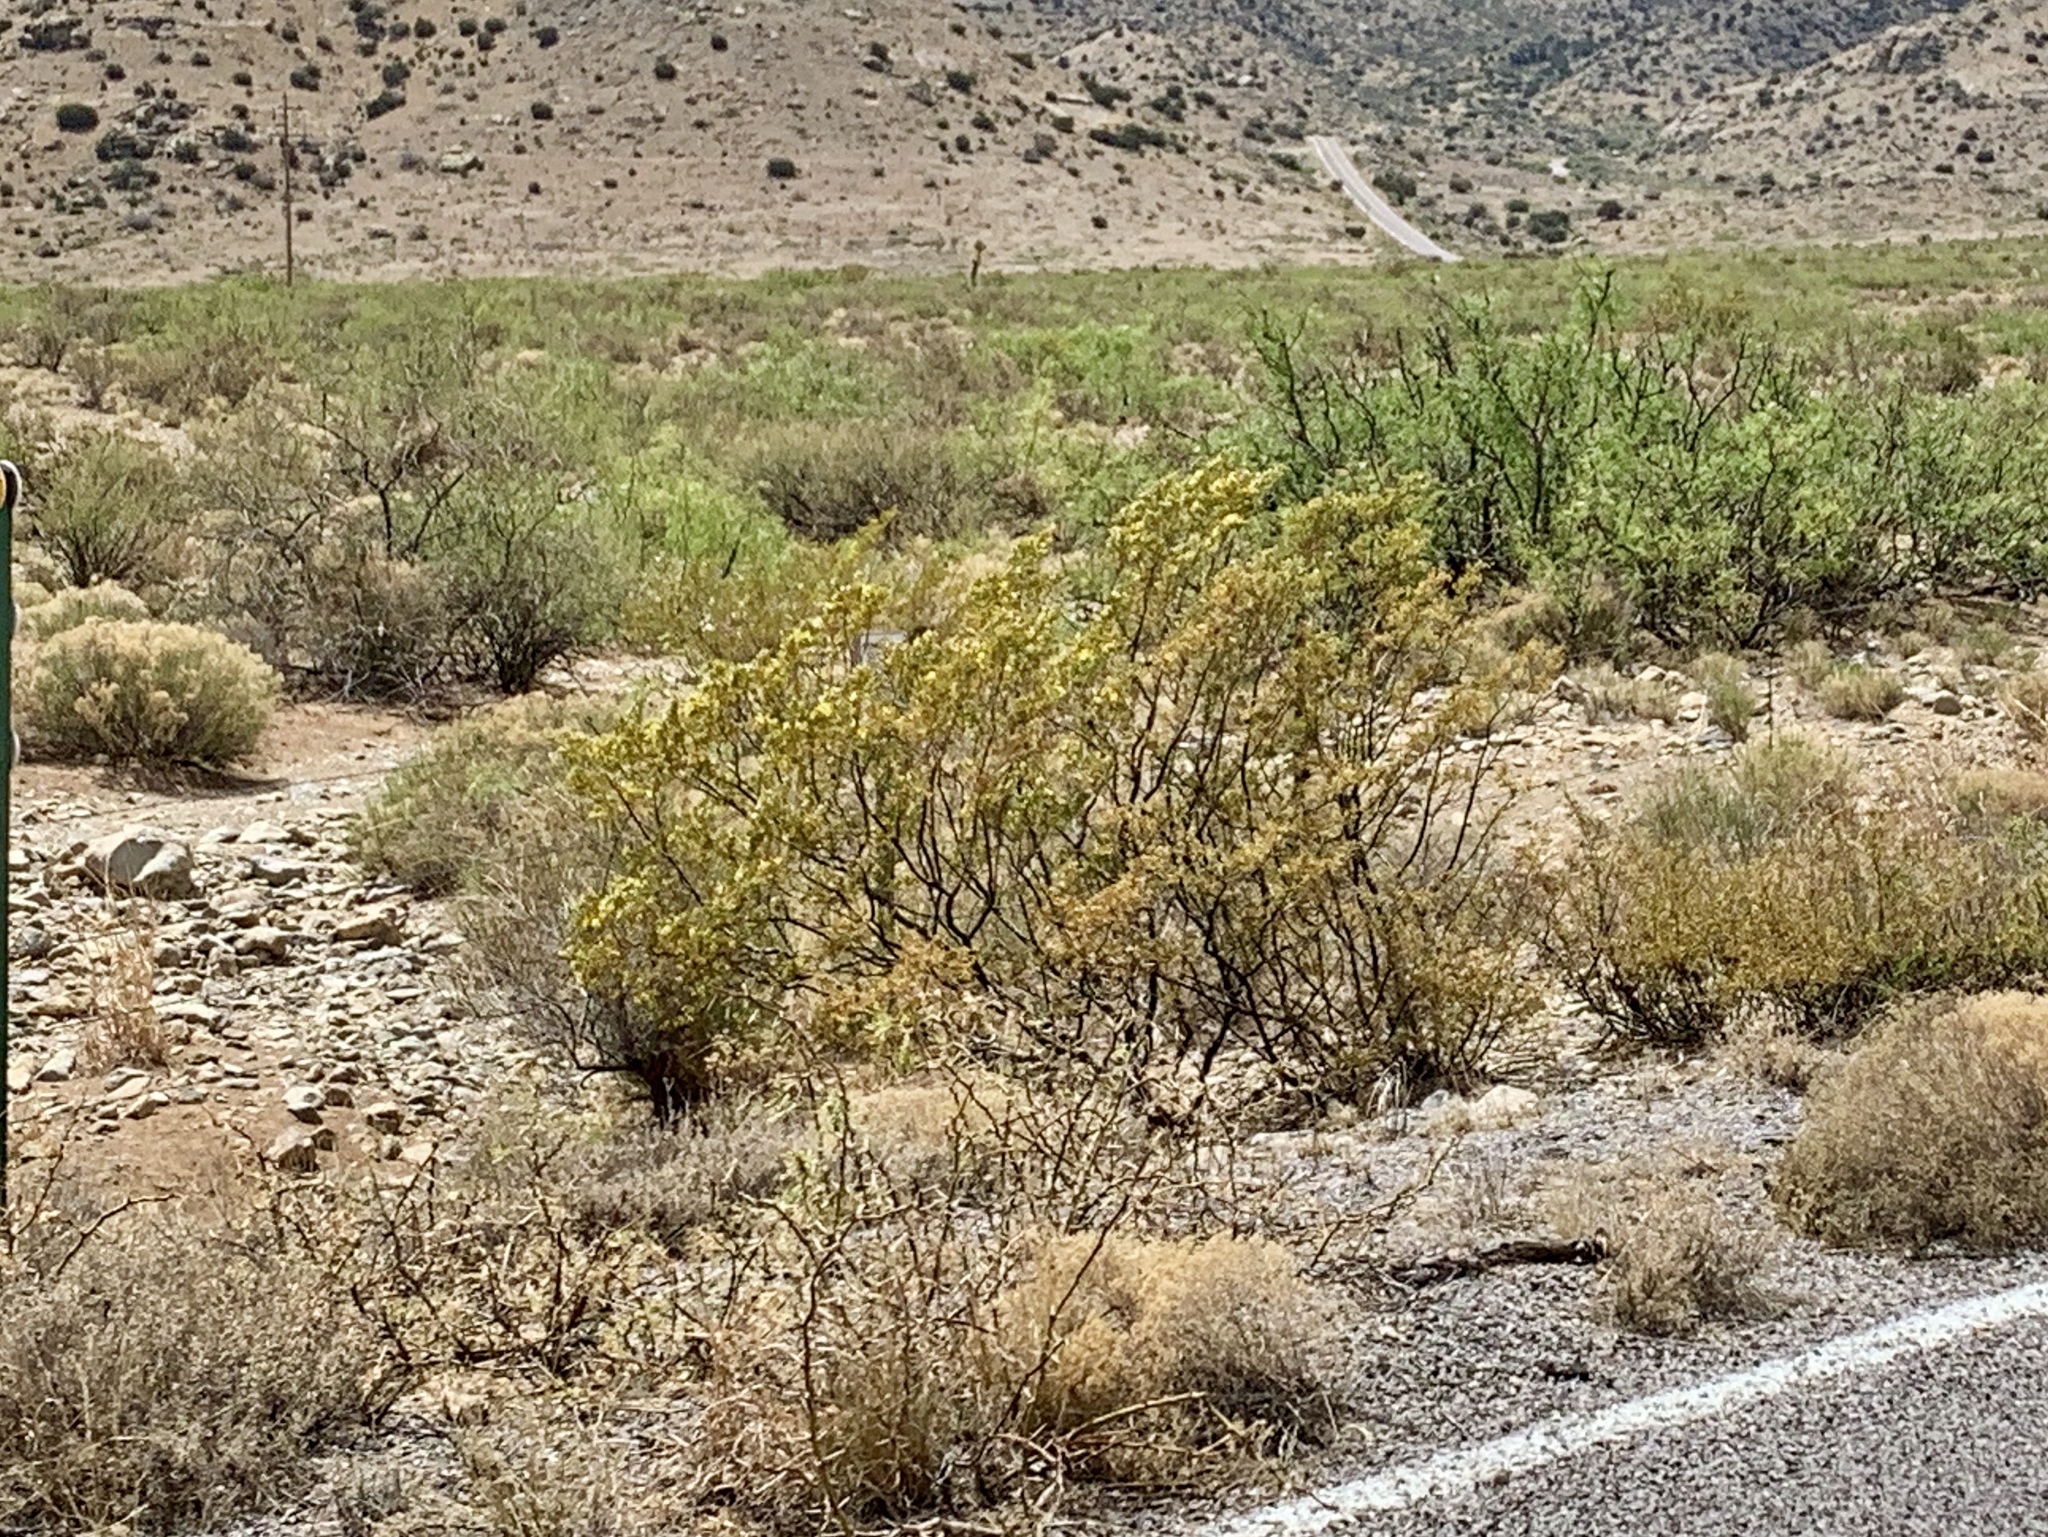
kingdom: Plantae
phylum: Tracheophyta
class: Magnoliopsida
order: Zygophyllales
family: Zygophyllaceae
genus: Larrea
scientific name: Larrea tridentata
